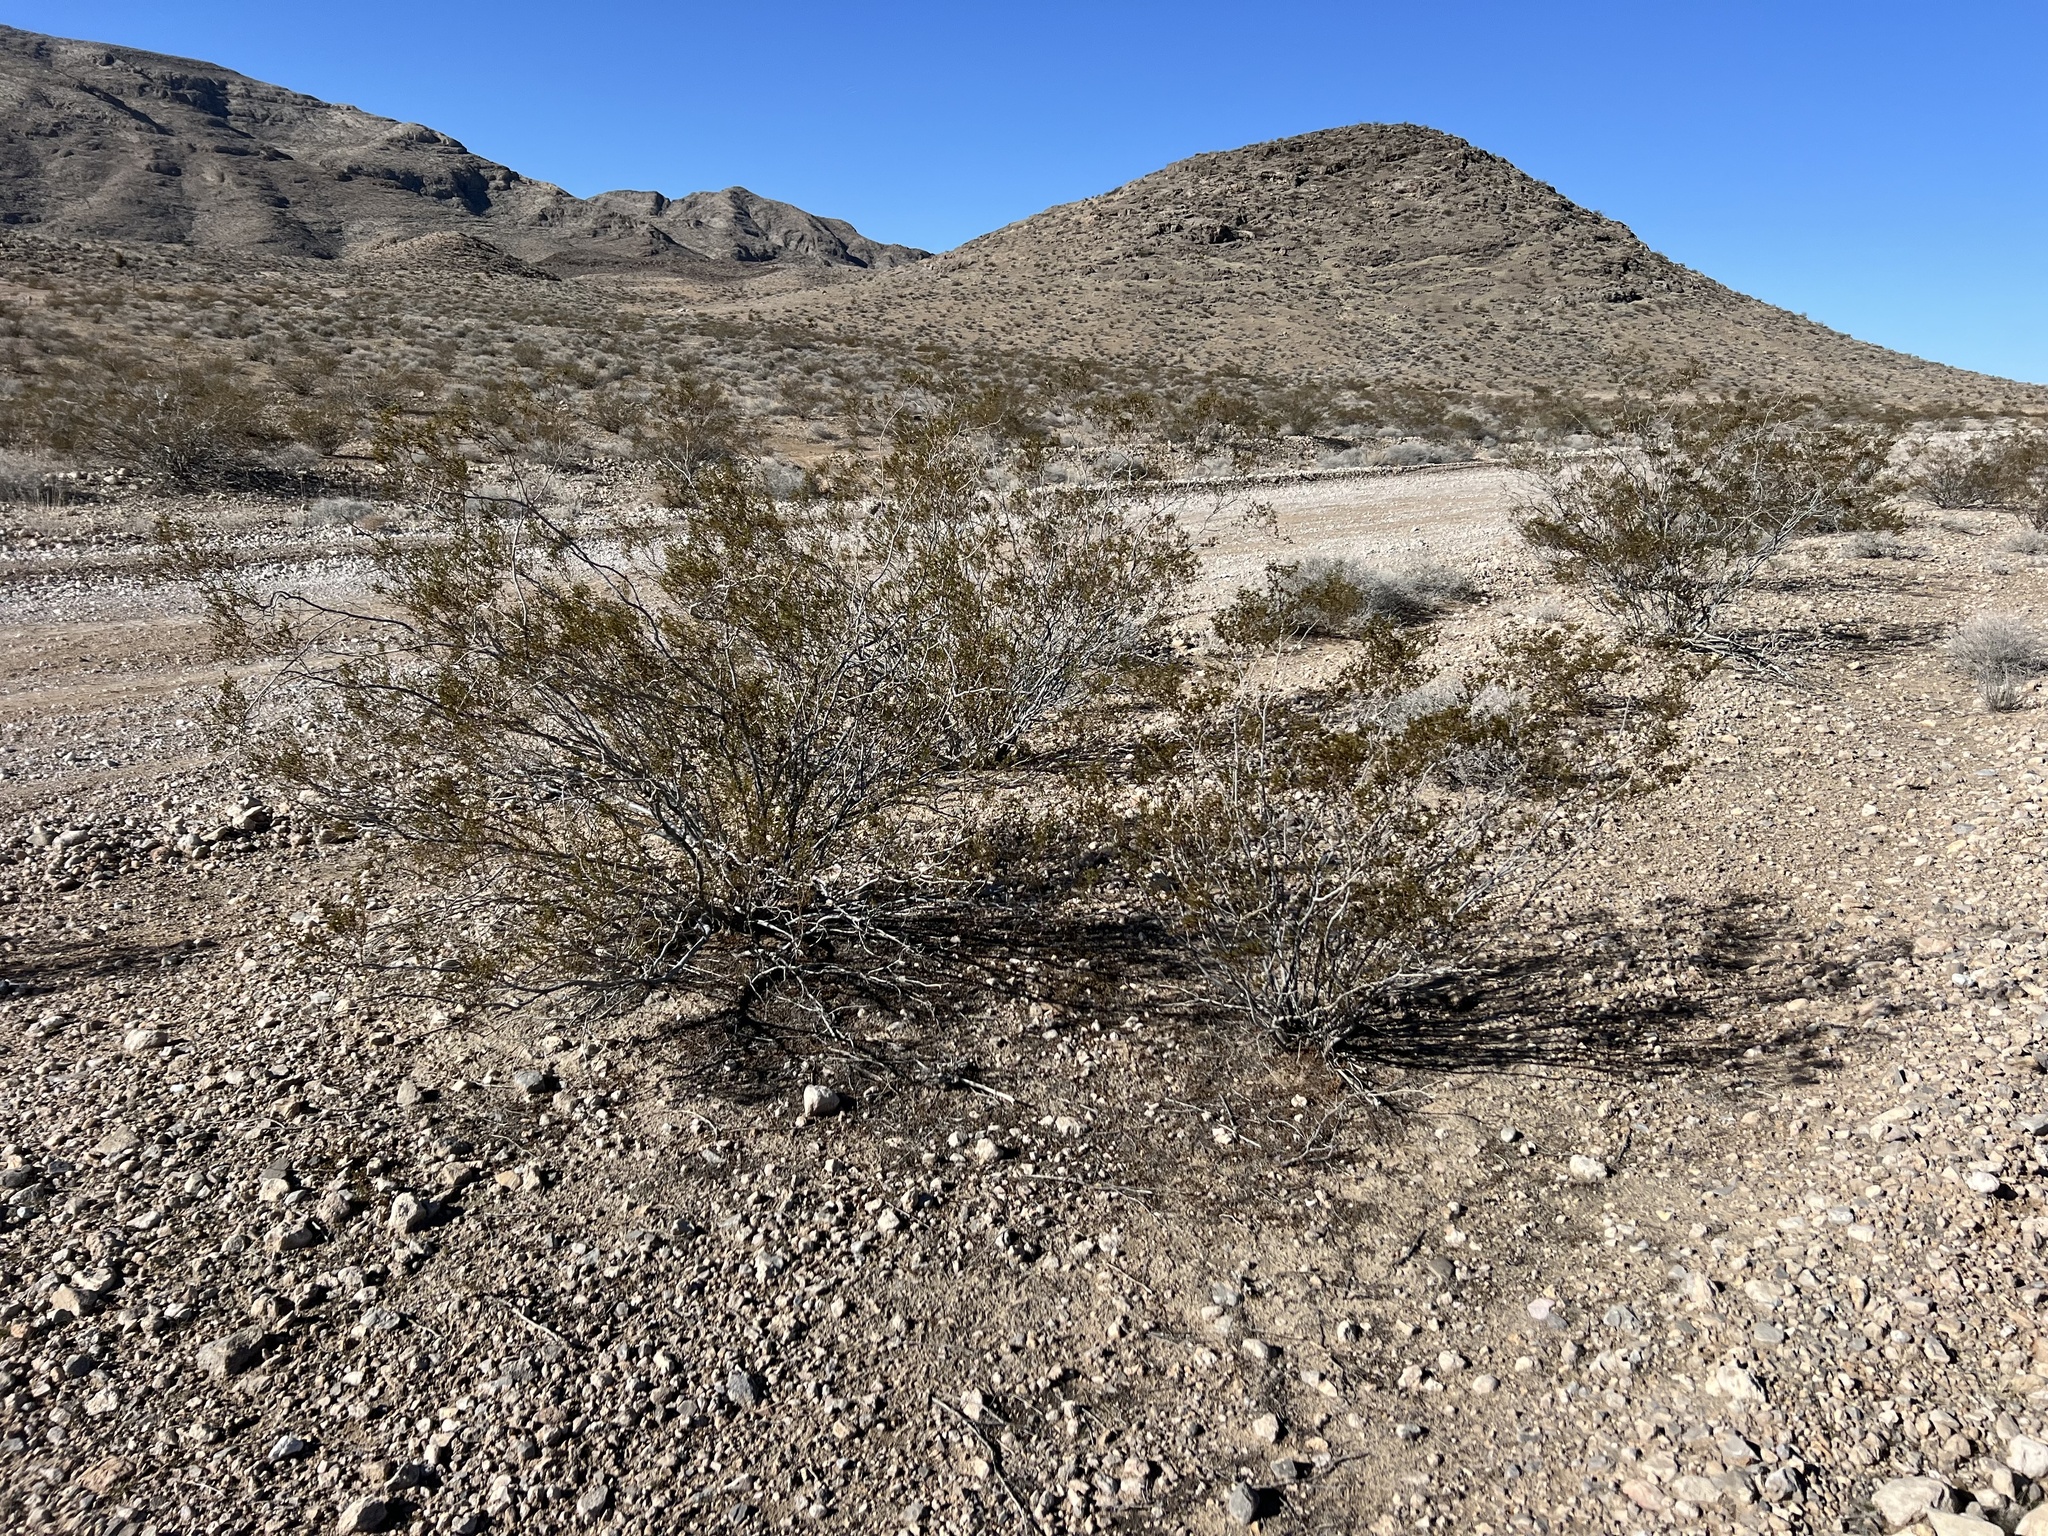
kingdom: Plantae
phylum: Tracheophyta
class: Magnoliopsida
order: Zygophyllales
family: Zygophyllaceae
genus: Larrea
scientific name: Larrea tridentata
